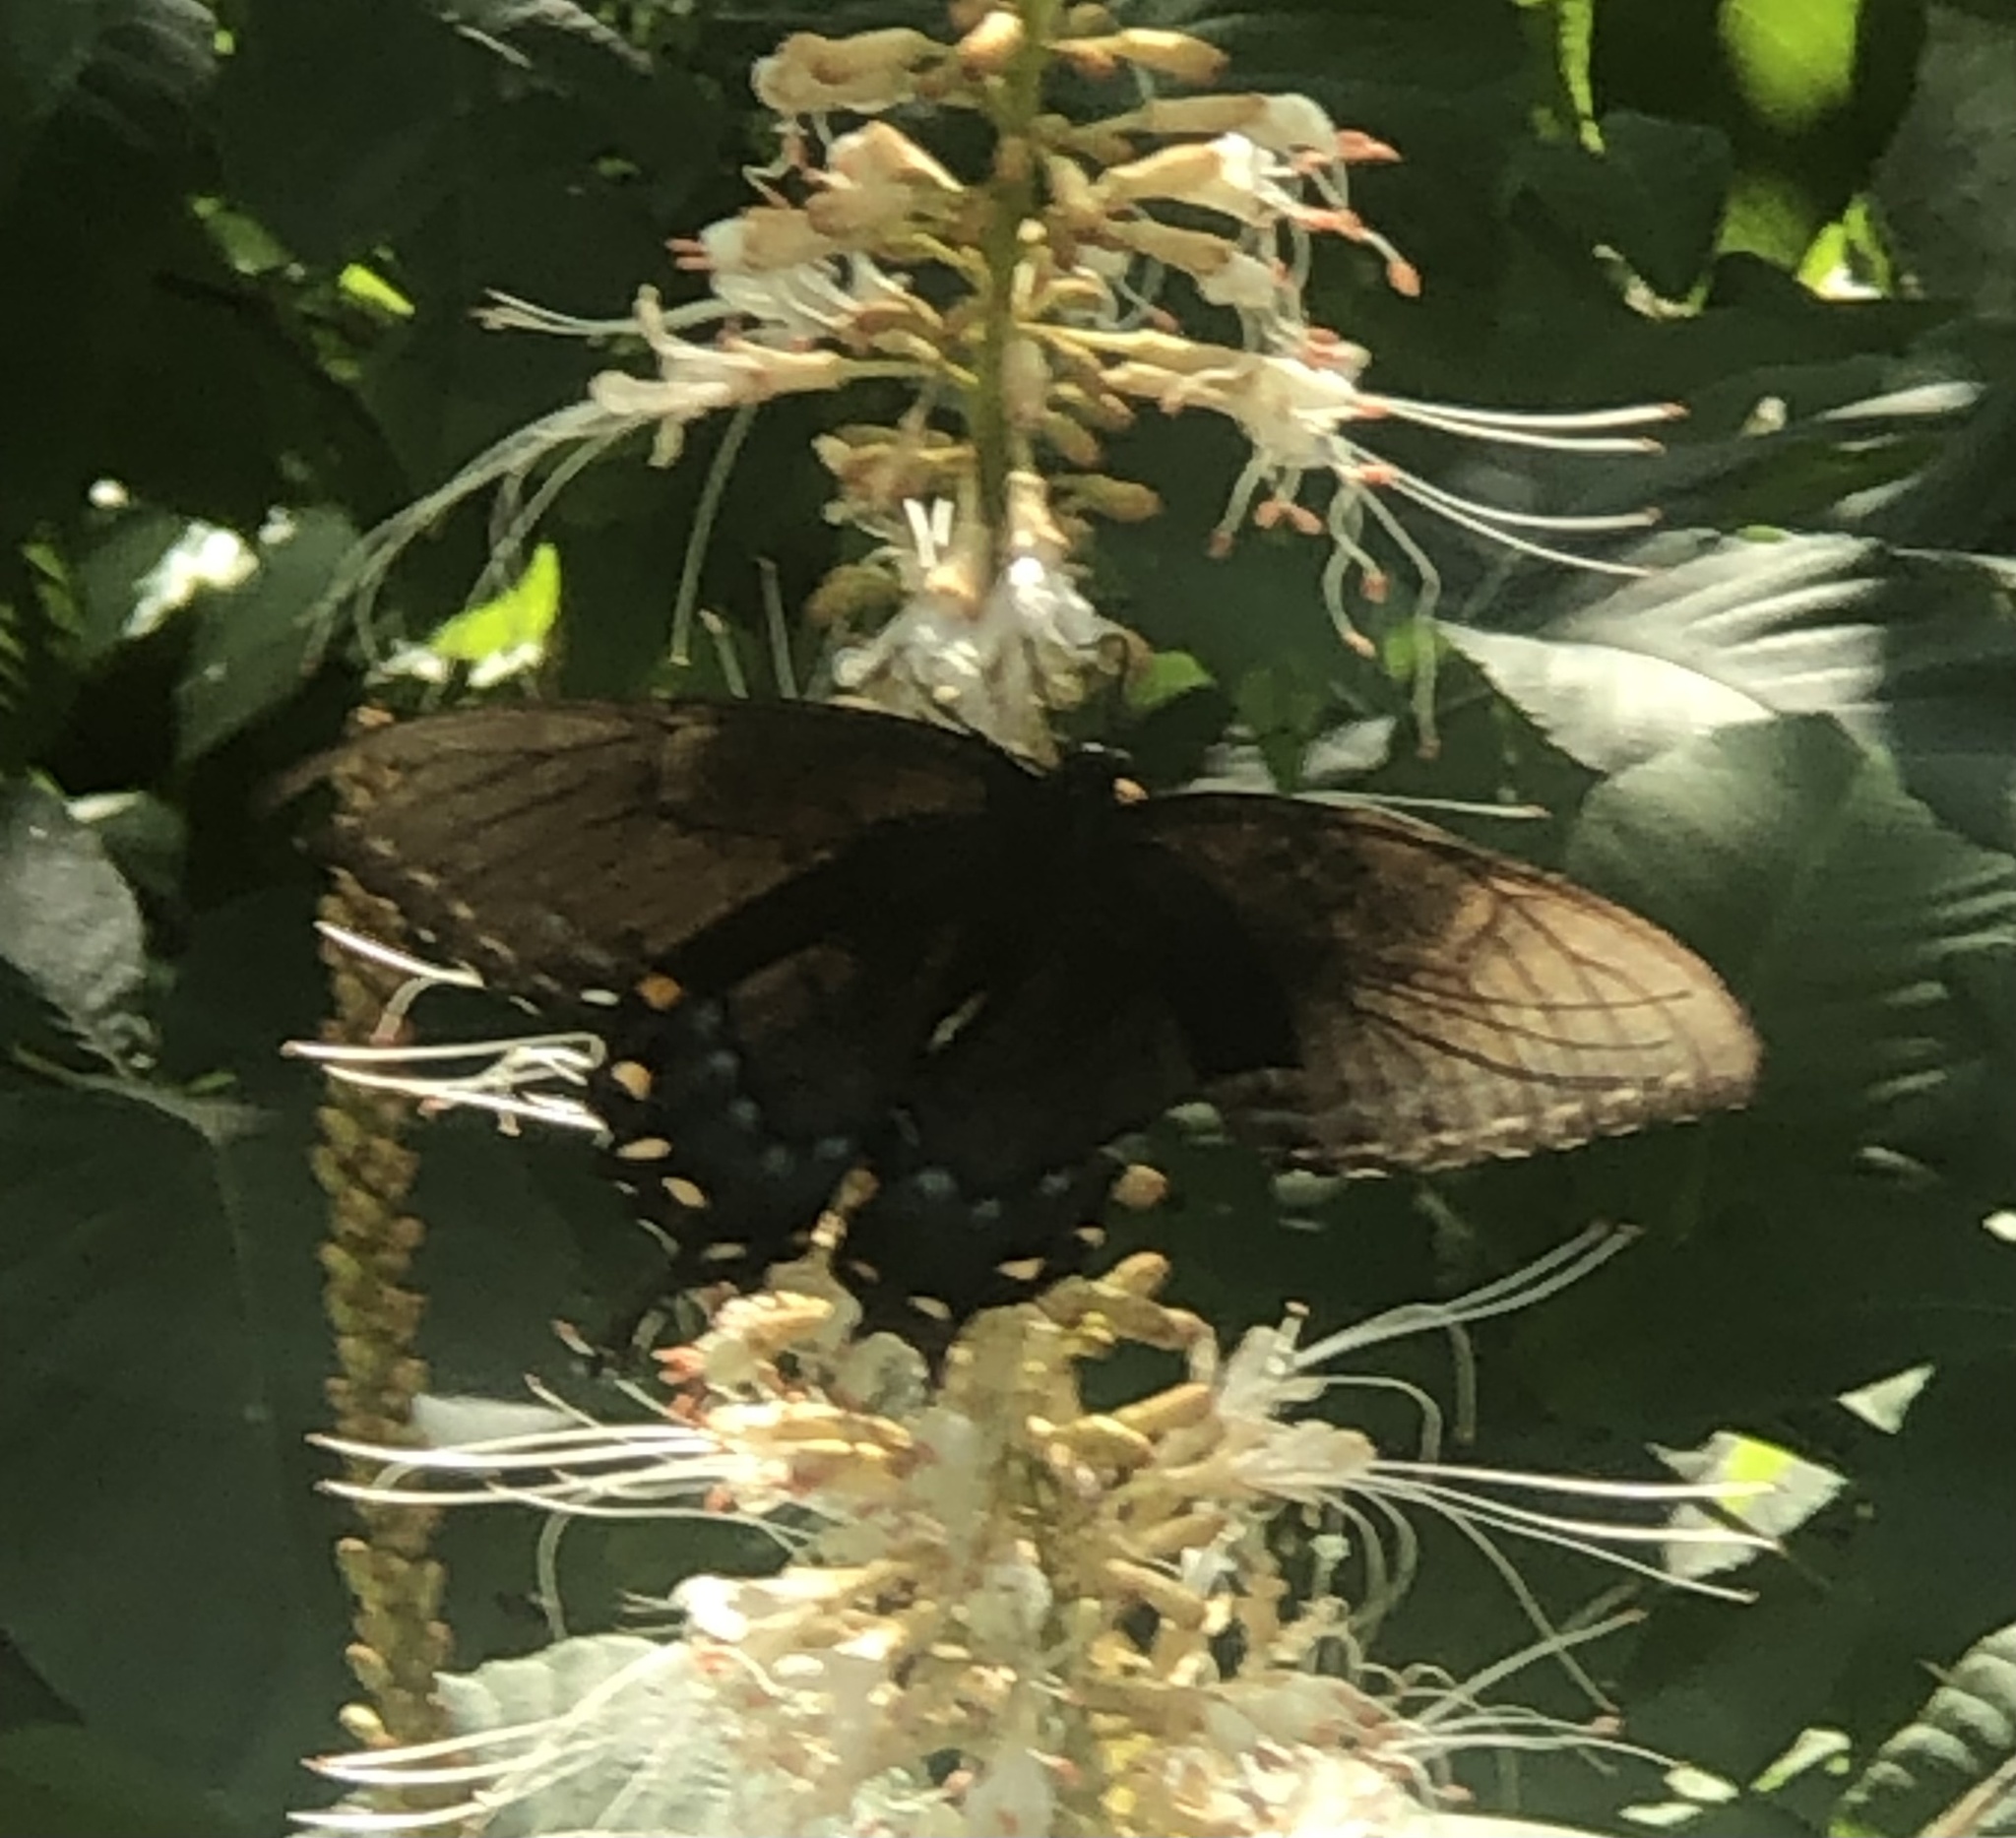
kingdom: Animalia
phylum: Arthropoda
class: Insecta
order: Lepidoptera
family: Papilionidae
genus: Papilio
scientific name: Papilio glaucus
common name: Tiger swallowtail
